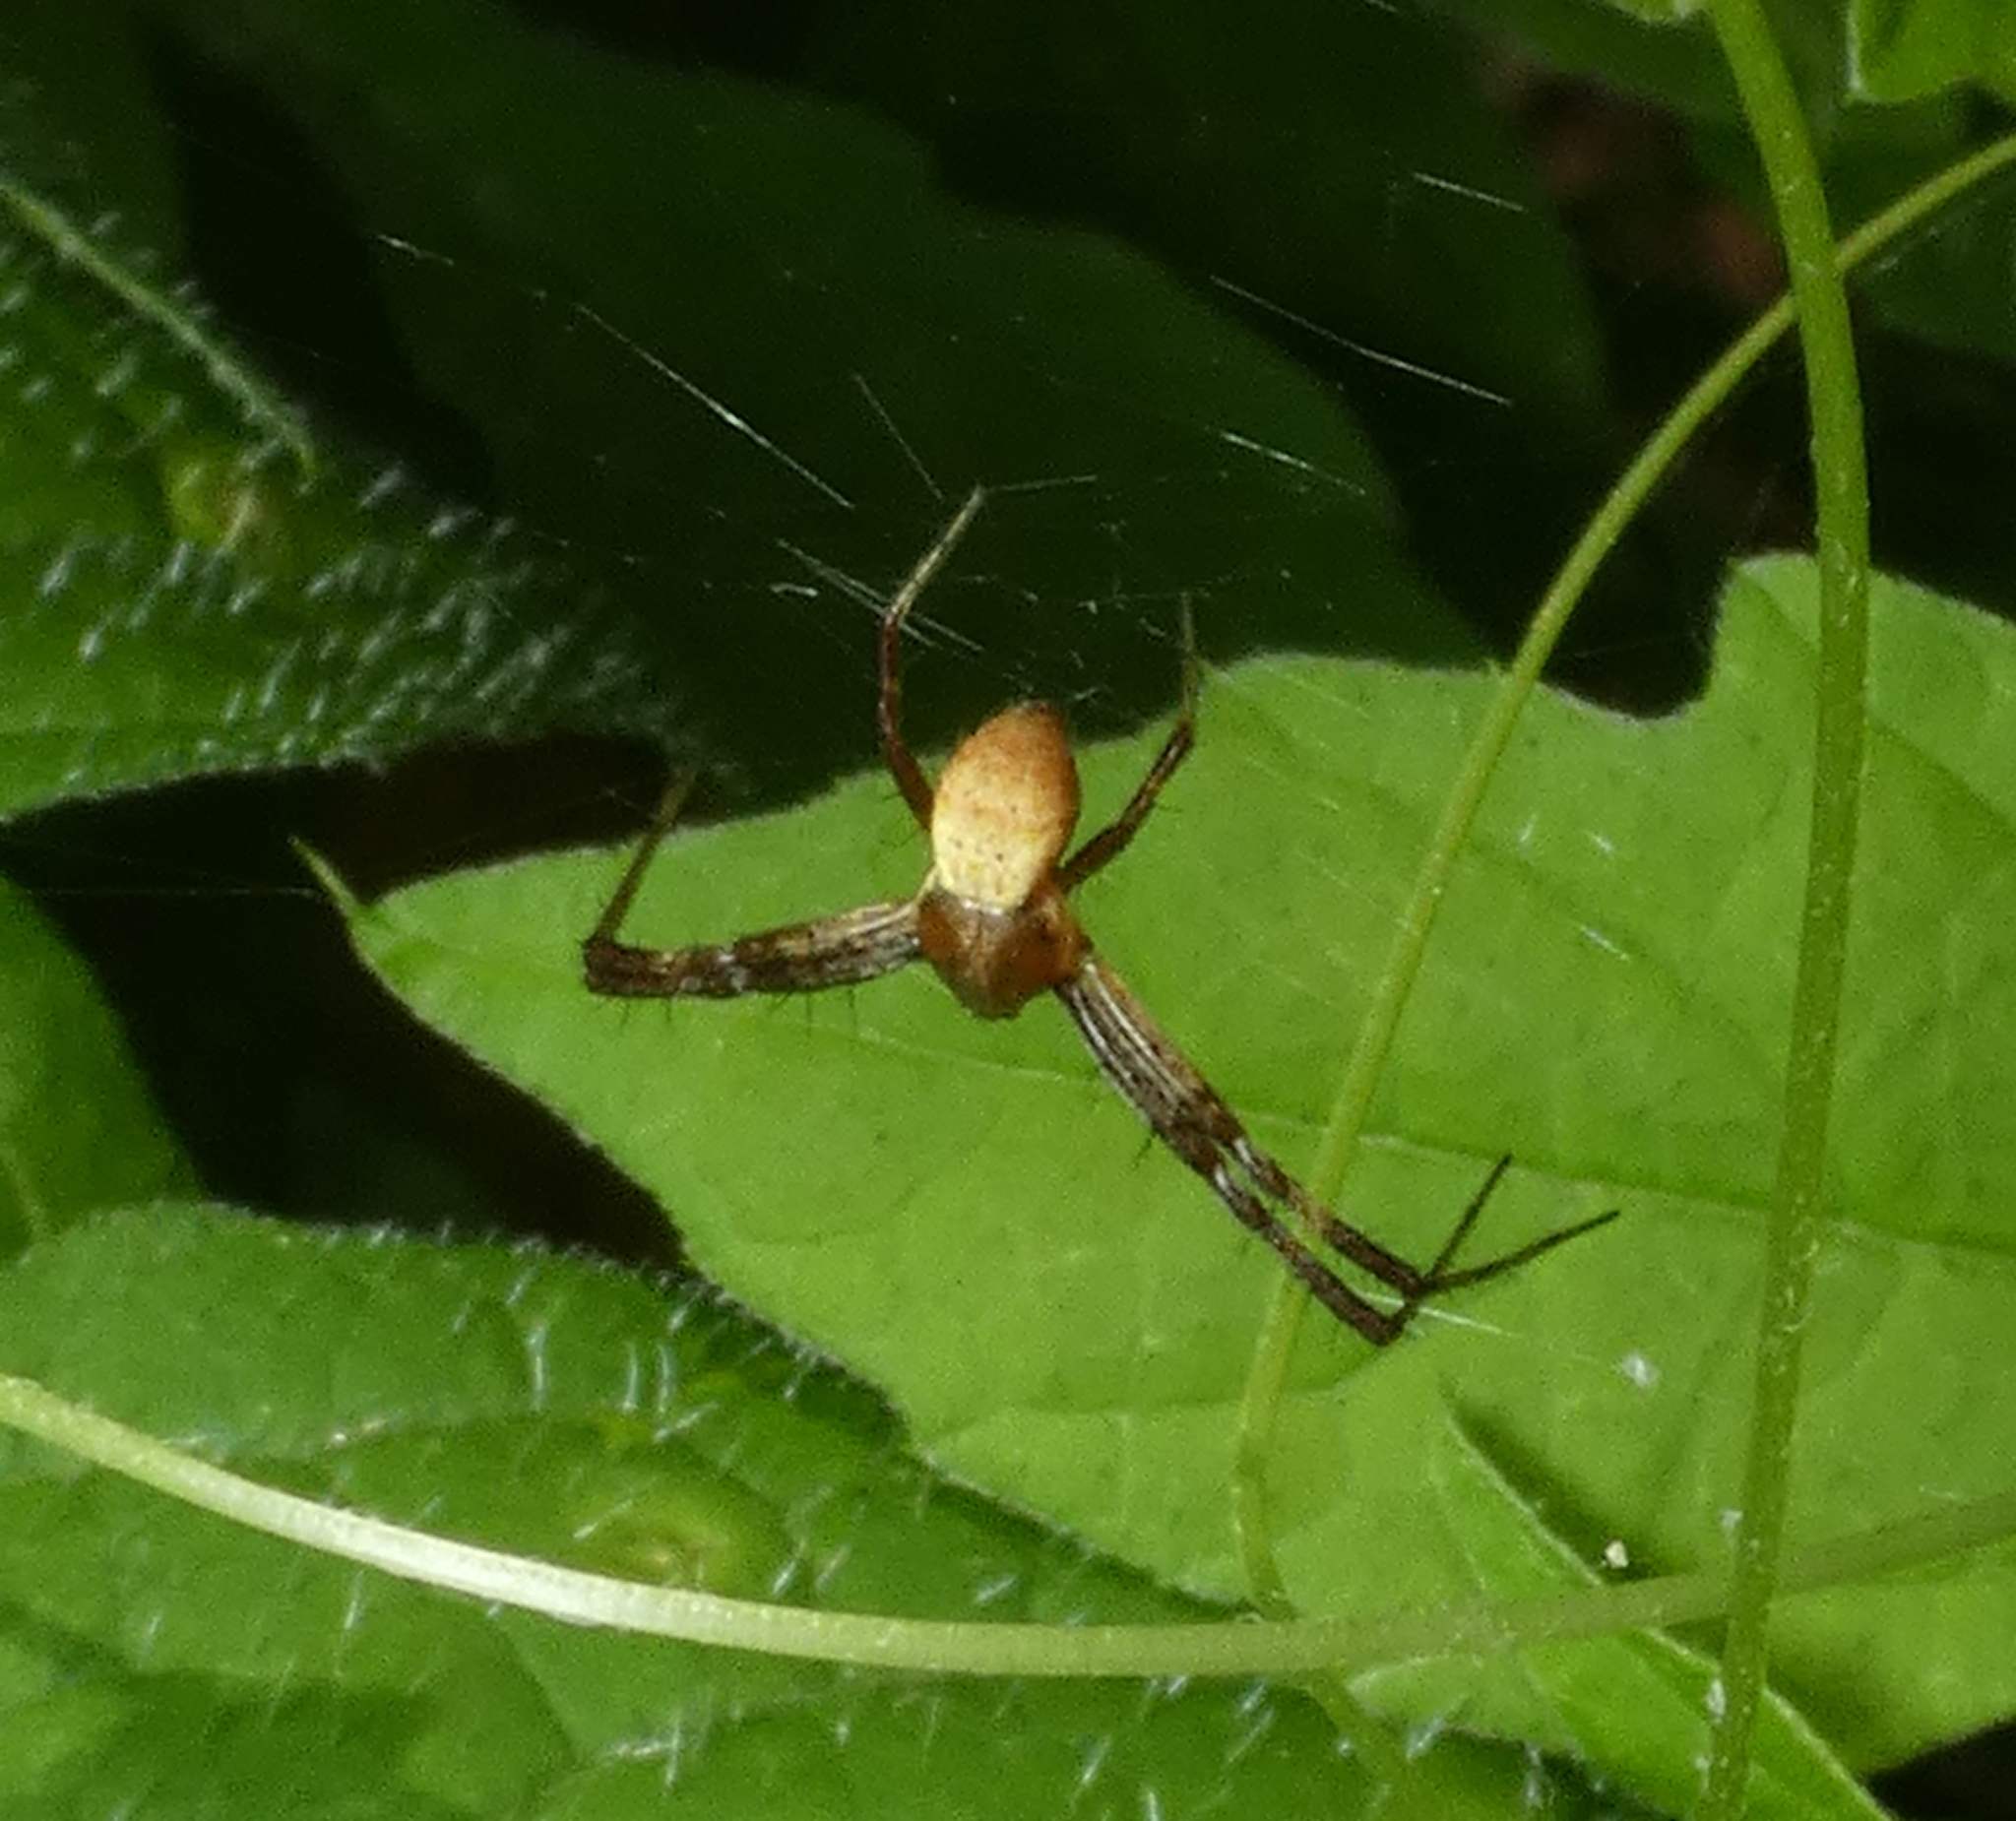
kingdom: Animalia
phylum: Arthropoda
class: Arachnida
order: Araneae
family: Araneidae
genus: Argiope
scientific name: Argiope argentata
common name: Orb weavers
